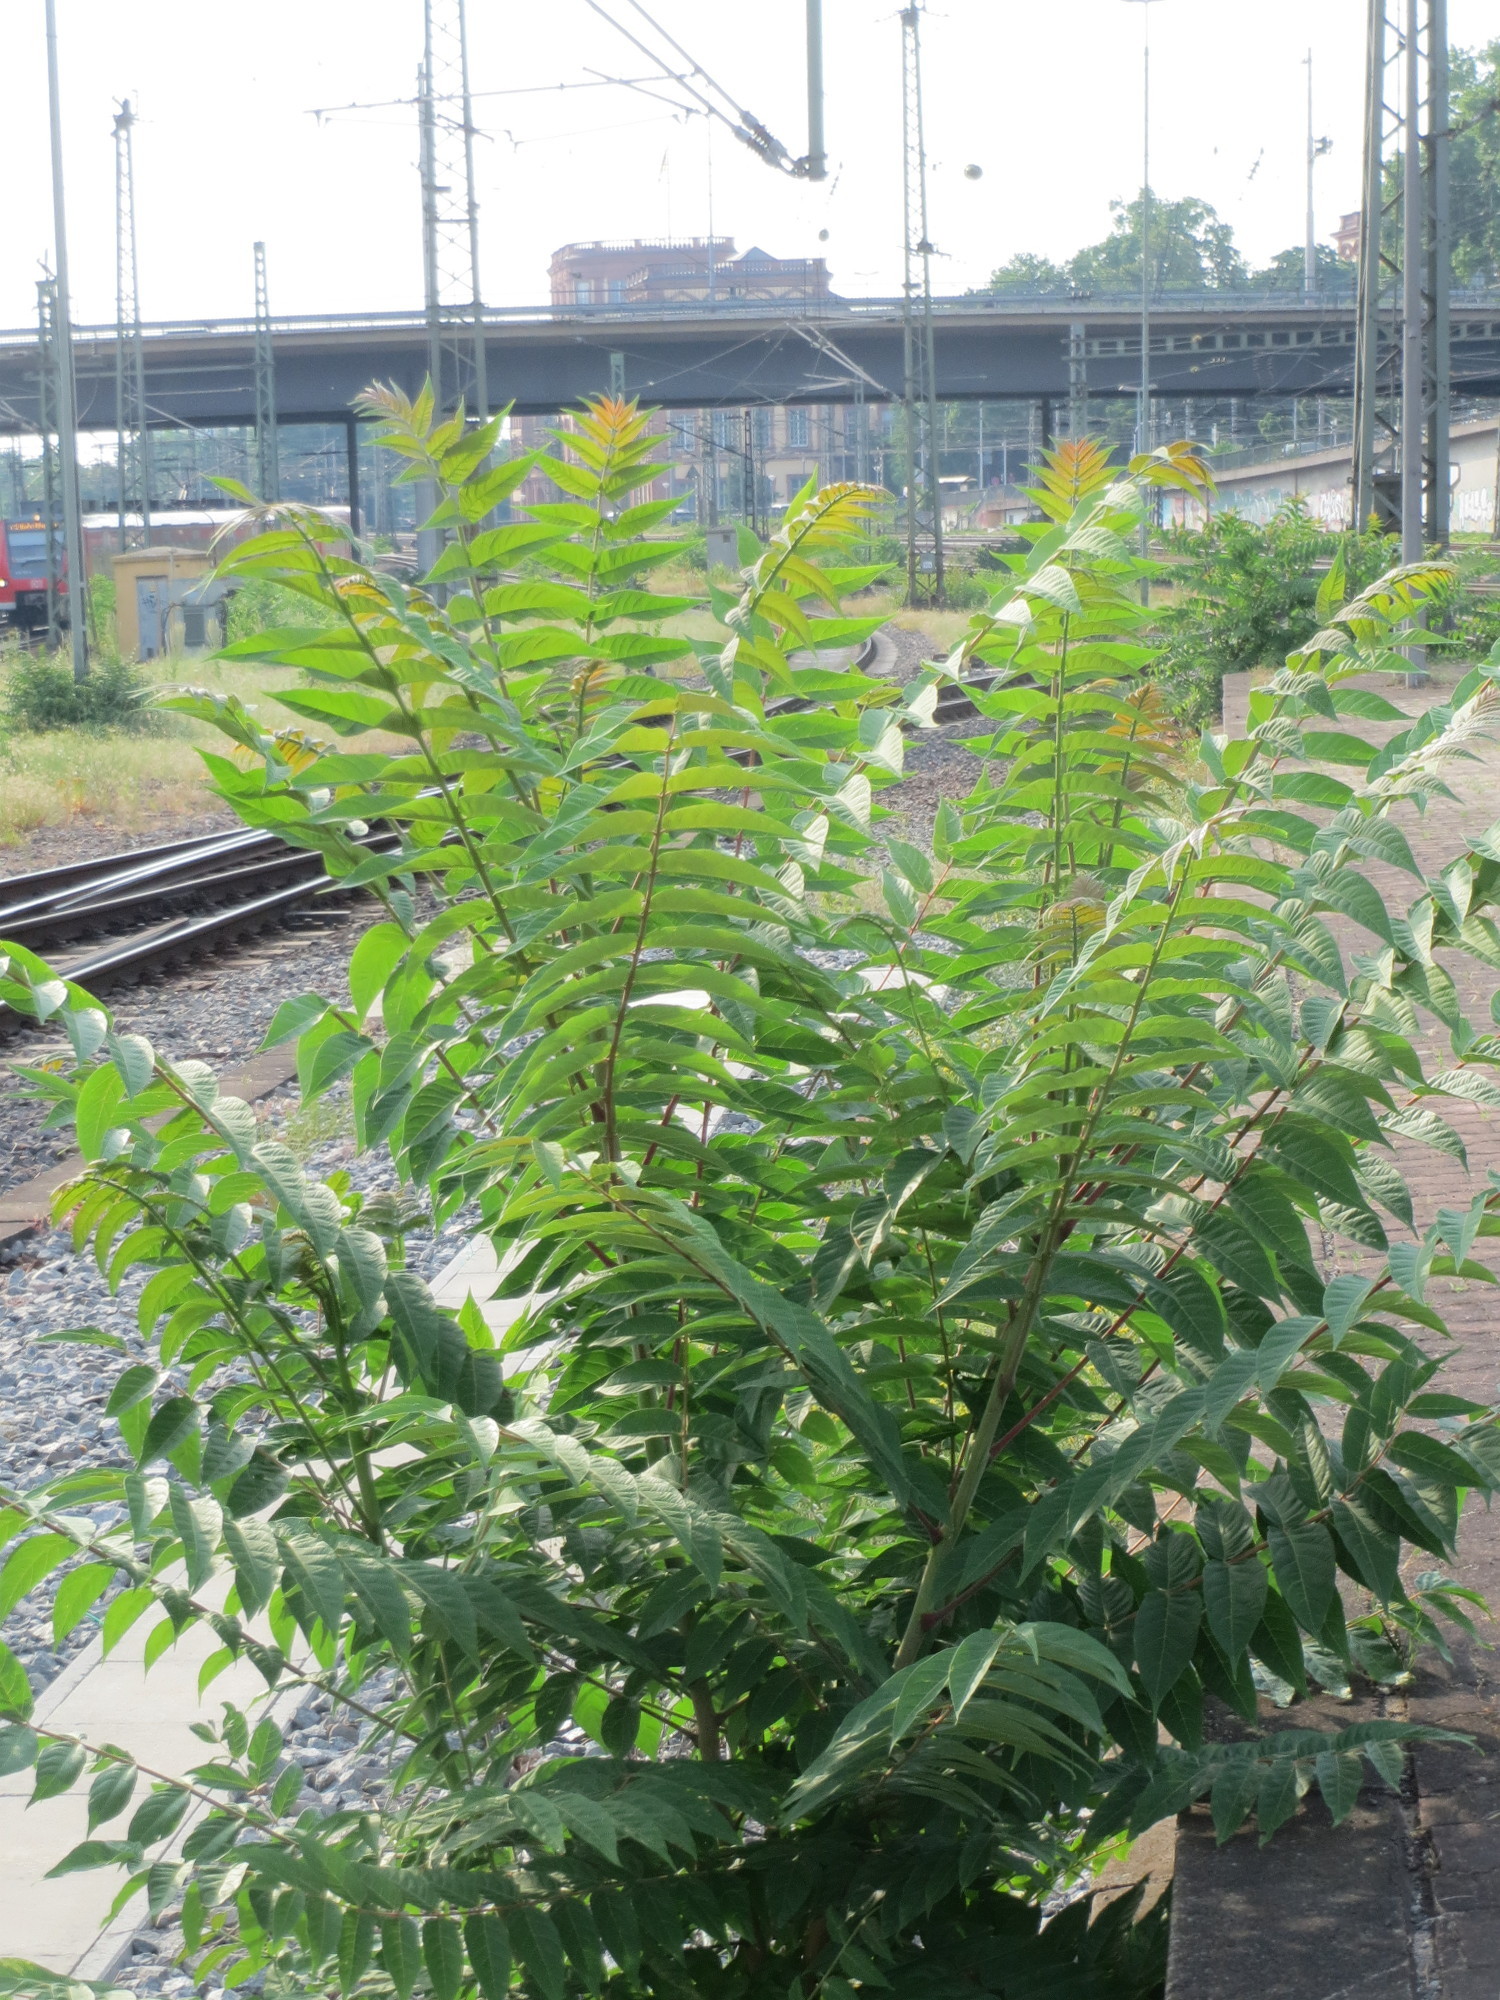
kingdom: Plantae
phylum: Tracheophyta
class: Magnoliopsida
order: Sapindales
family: Simaroubaceae
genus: Ailanthus
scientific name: Ailanthus altissima
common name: Tree-of-heaven
